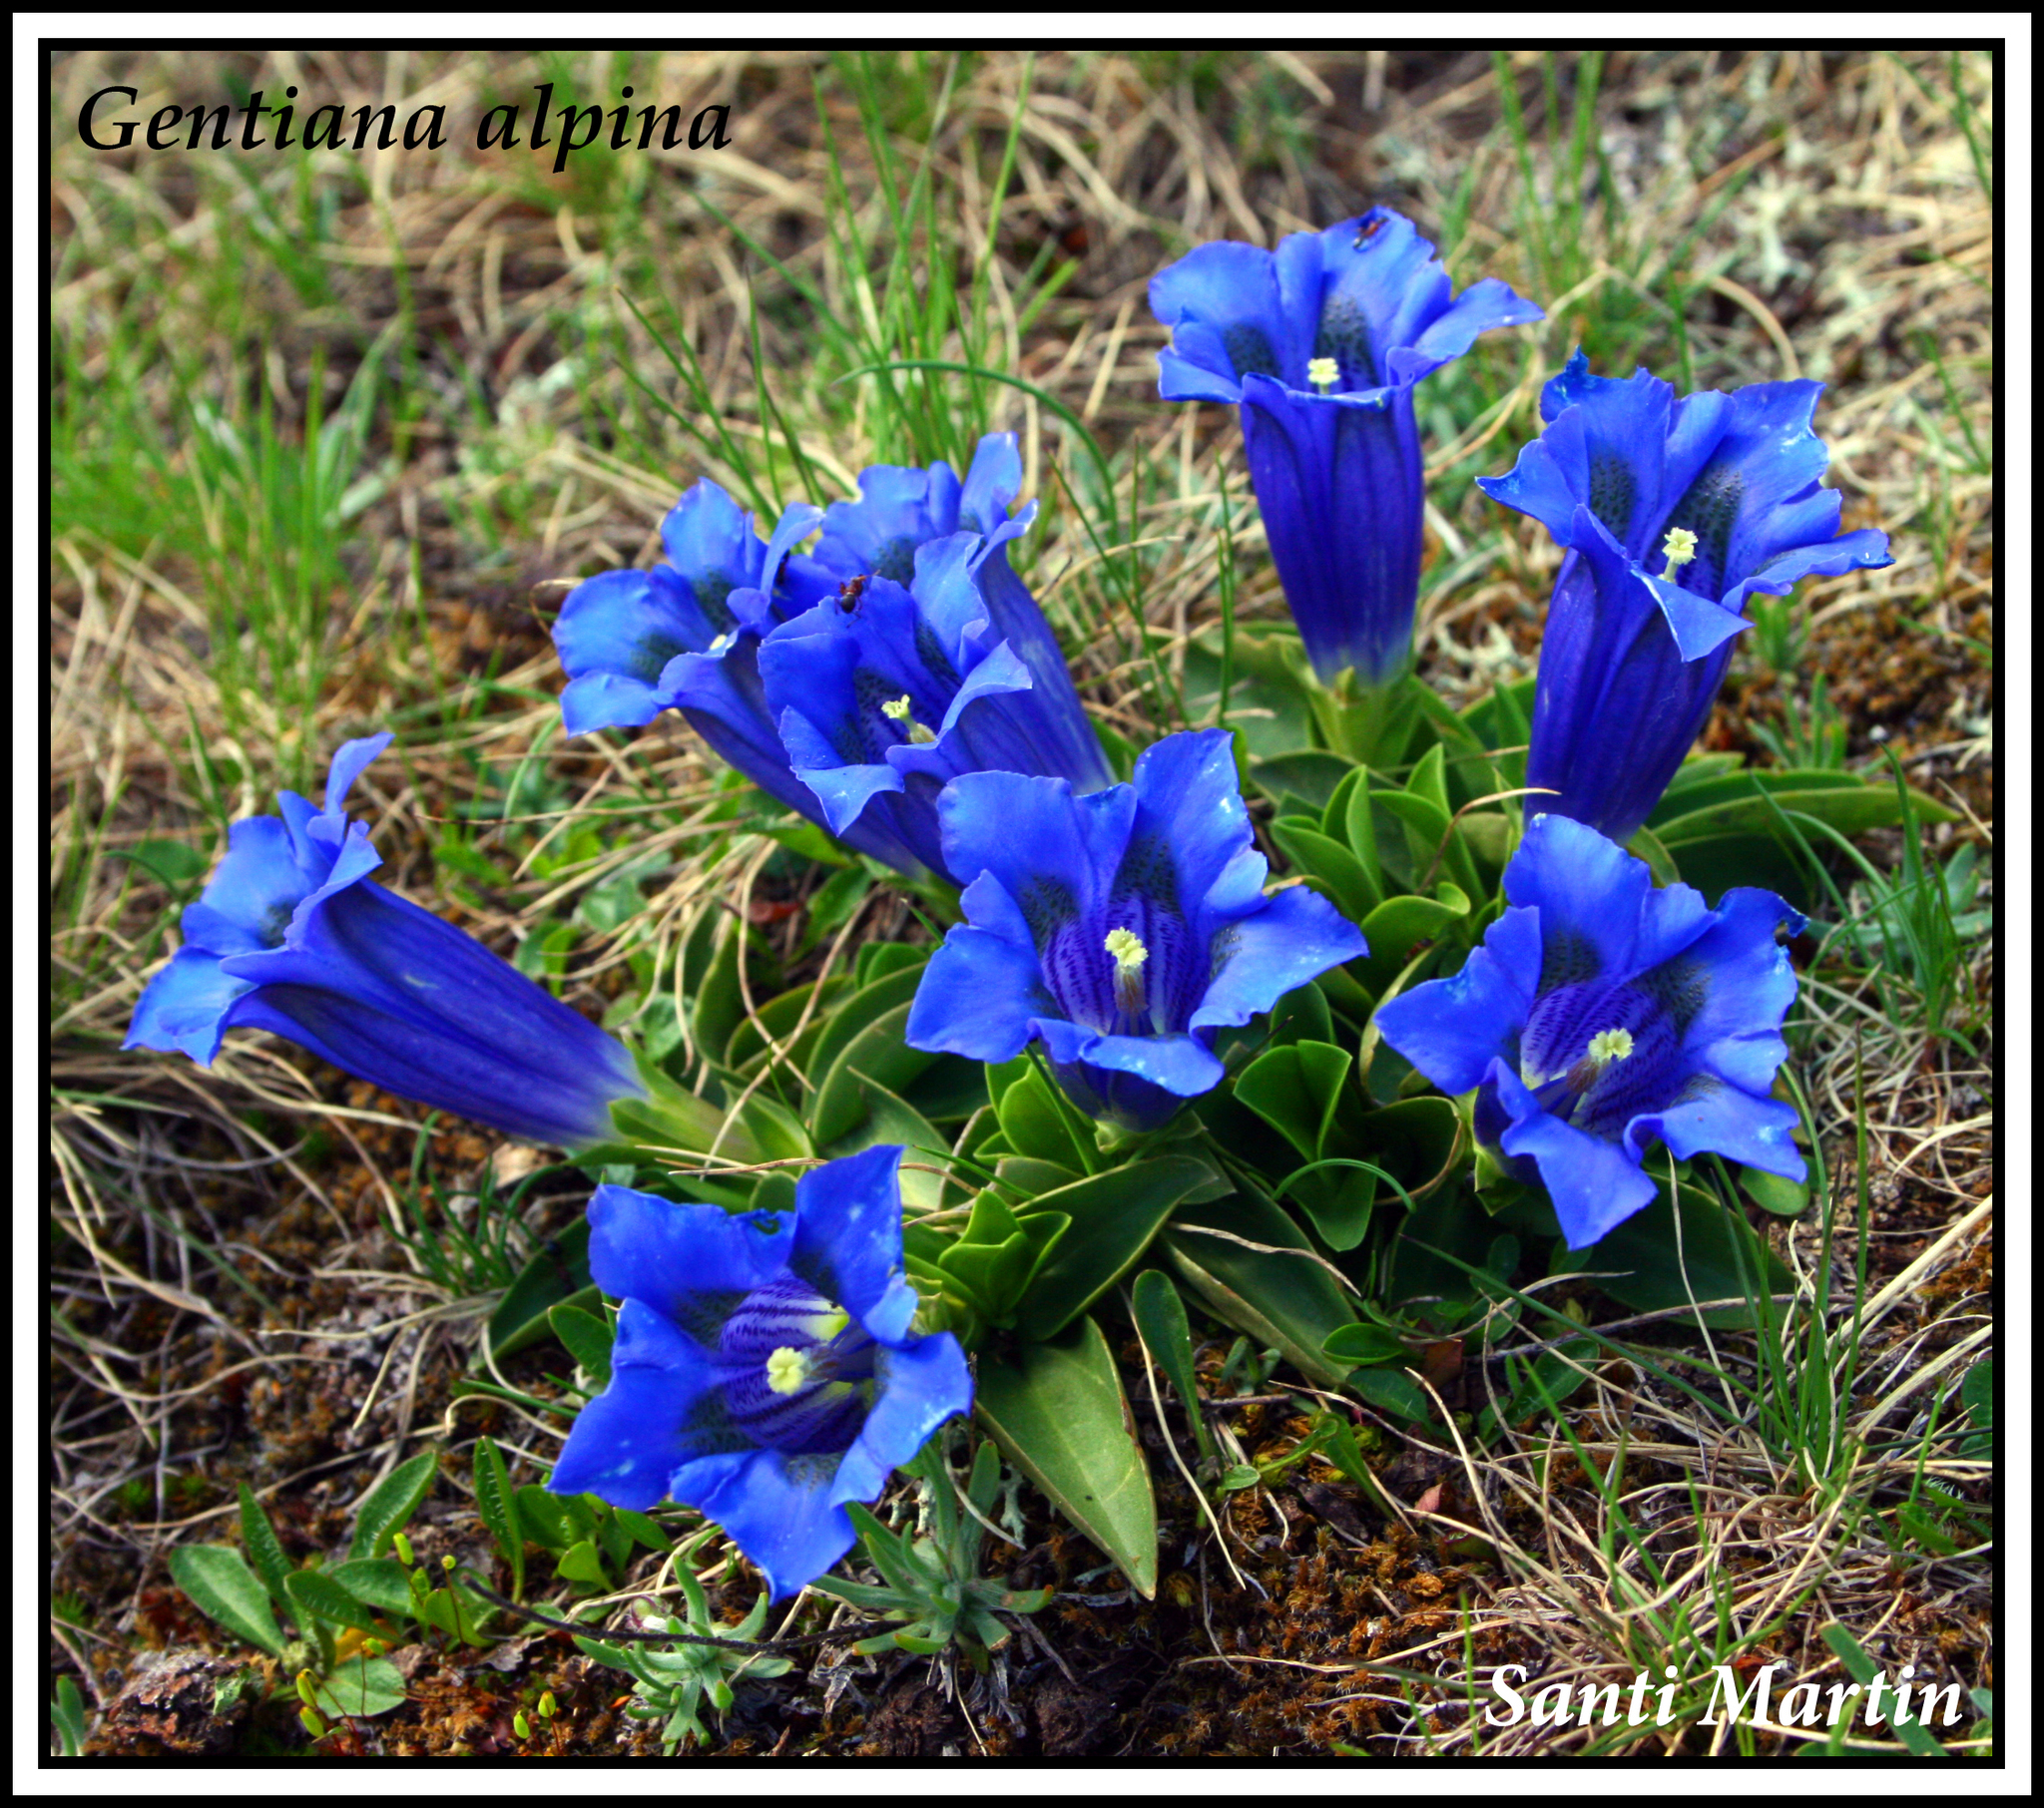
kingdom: Plantae
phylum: Tracheophyta
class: Magnoliopsida
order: Gentianales
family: Gentianaceae
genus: Gentiana
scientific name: Gentiana alpina
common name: Southern gentian
